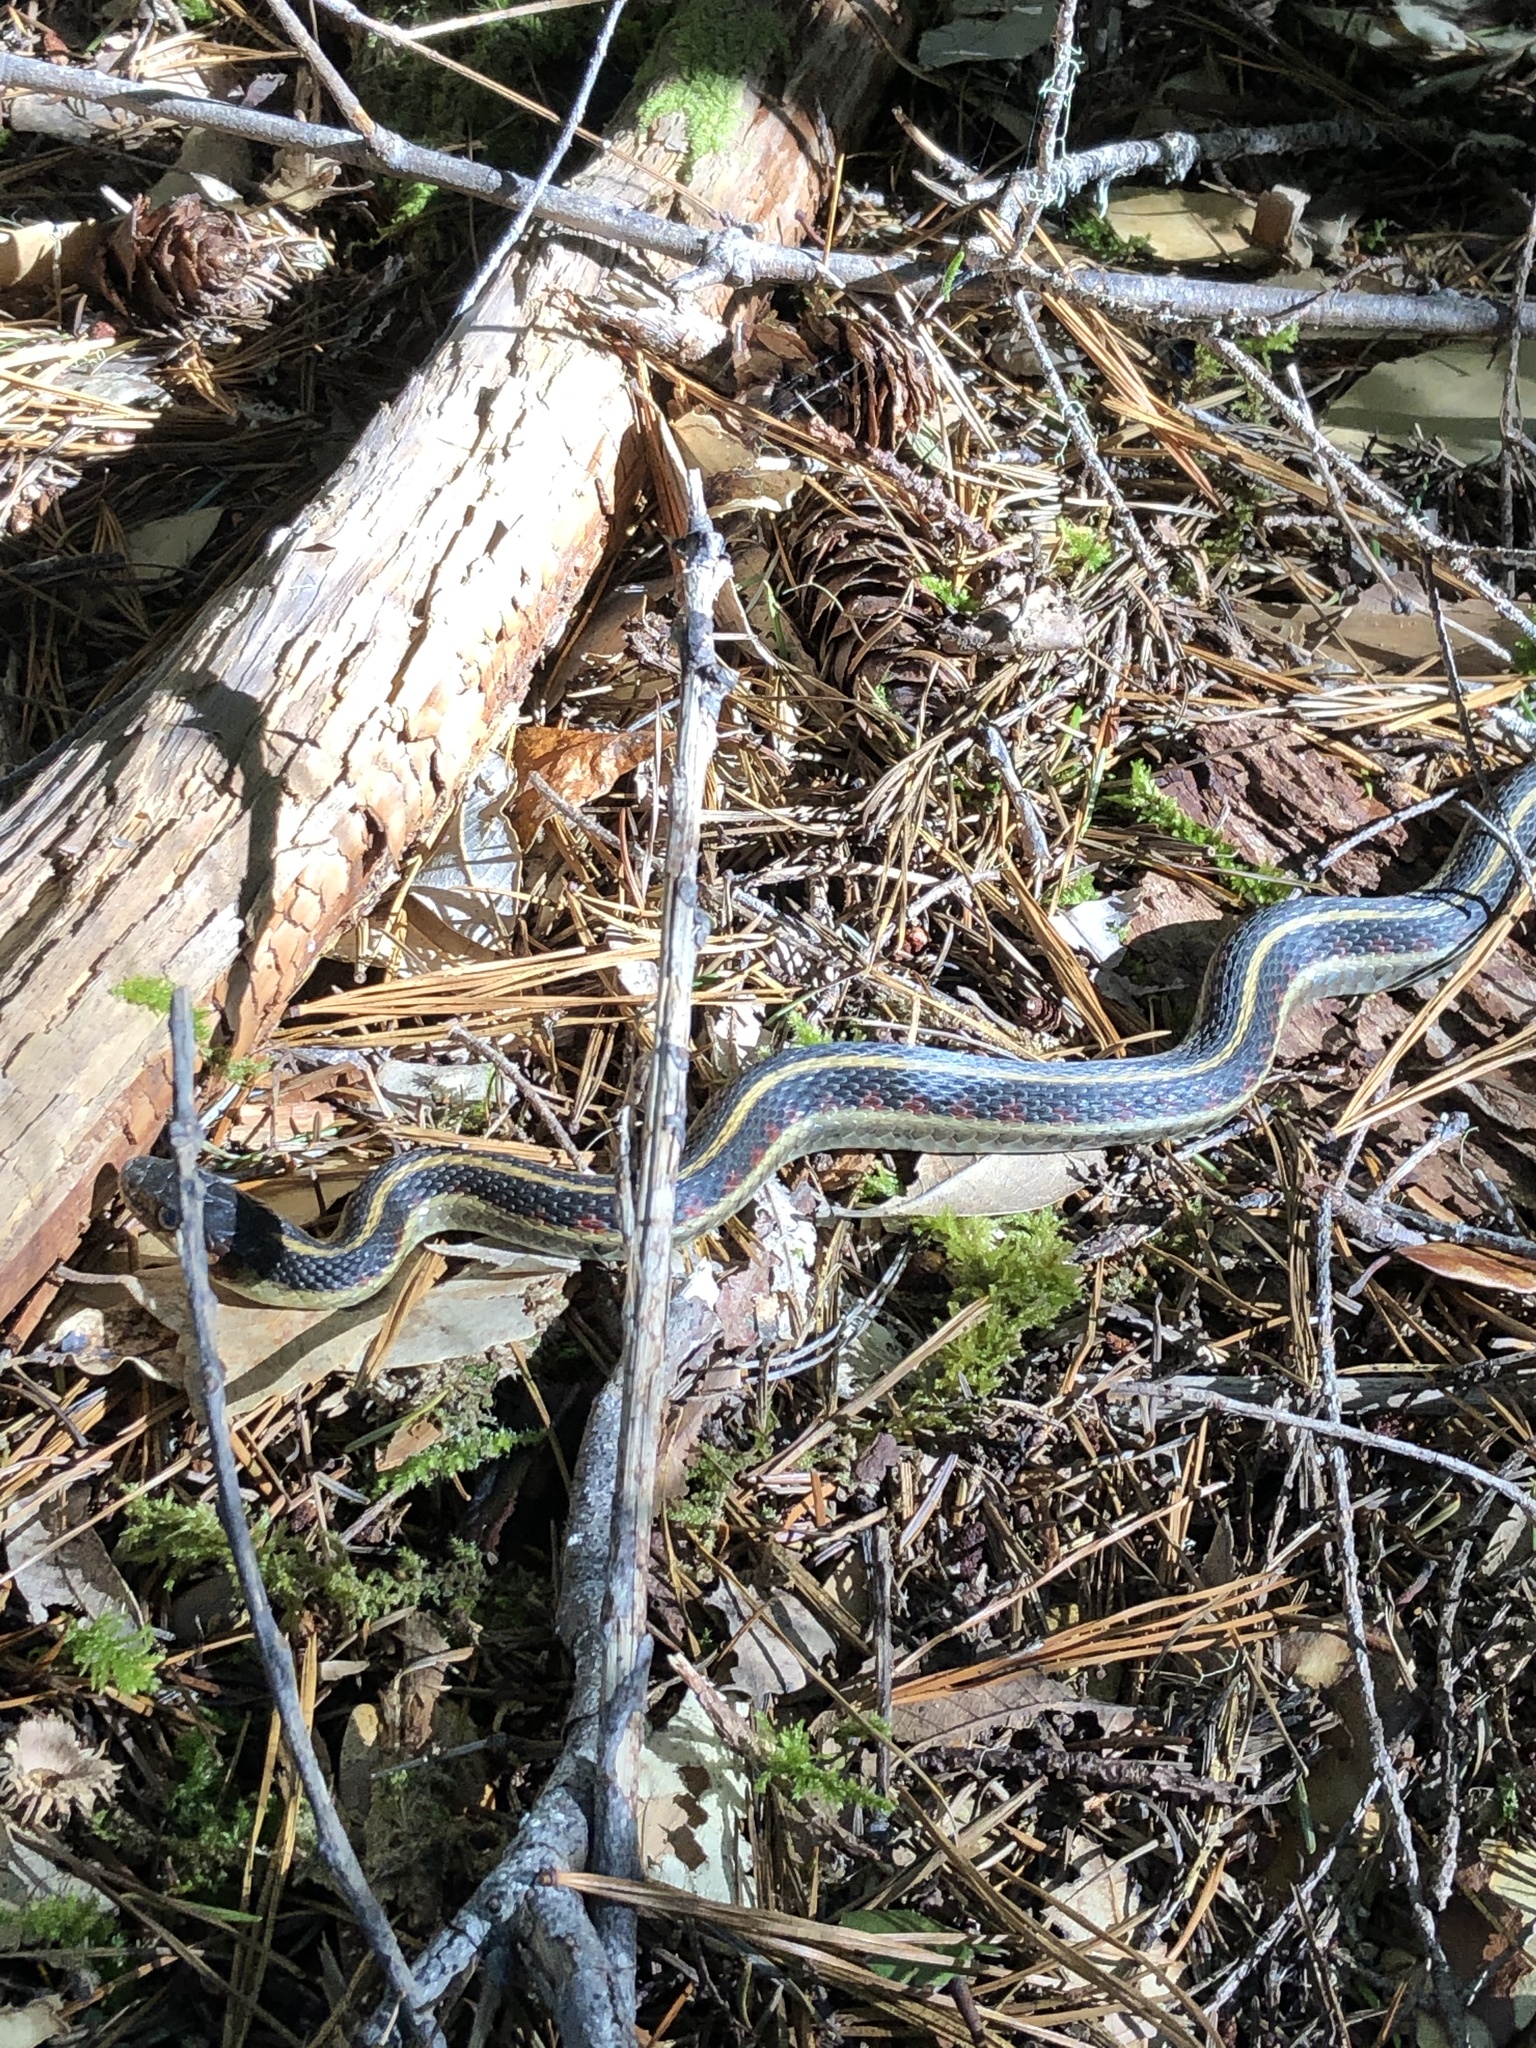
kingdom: Animalia
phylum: Chordata
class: Squamata
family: Colubridae
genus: Thamnophis
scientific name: Thamnophis sirtalis
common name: Common garter snake
